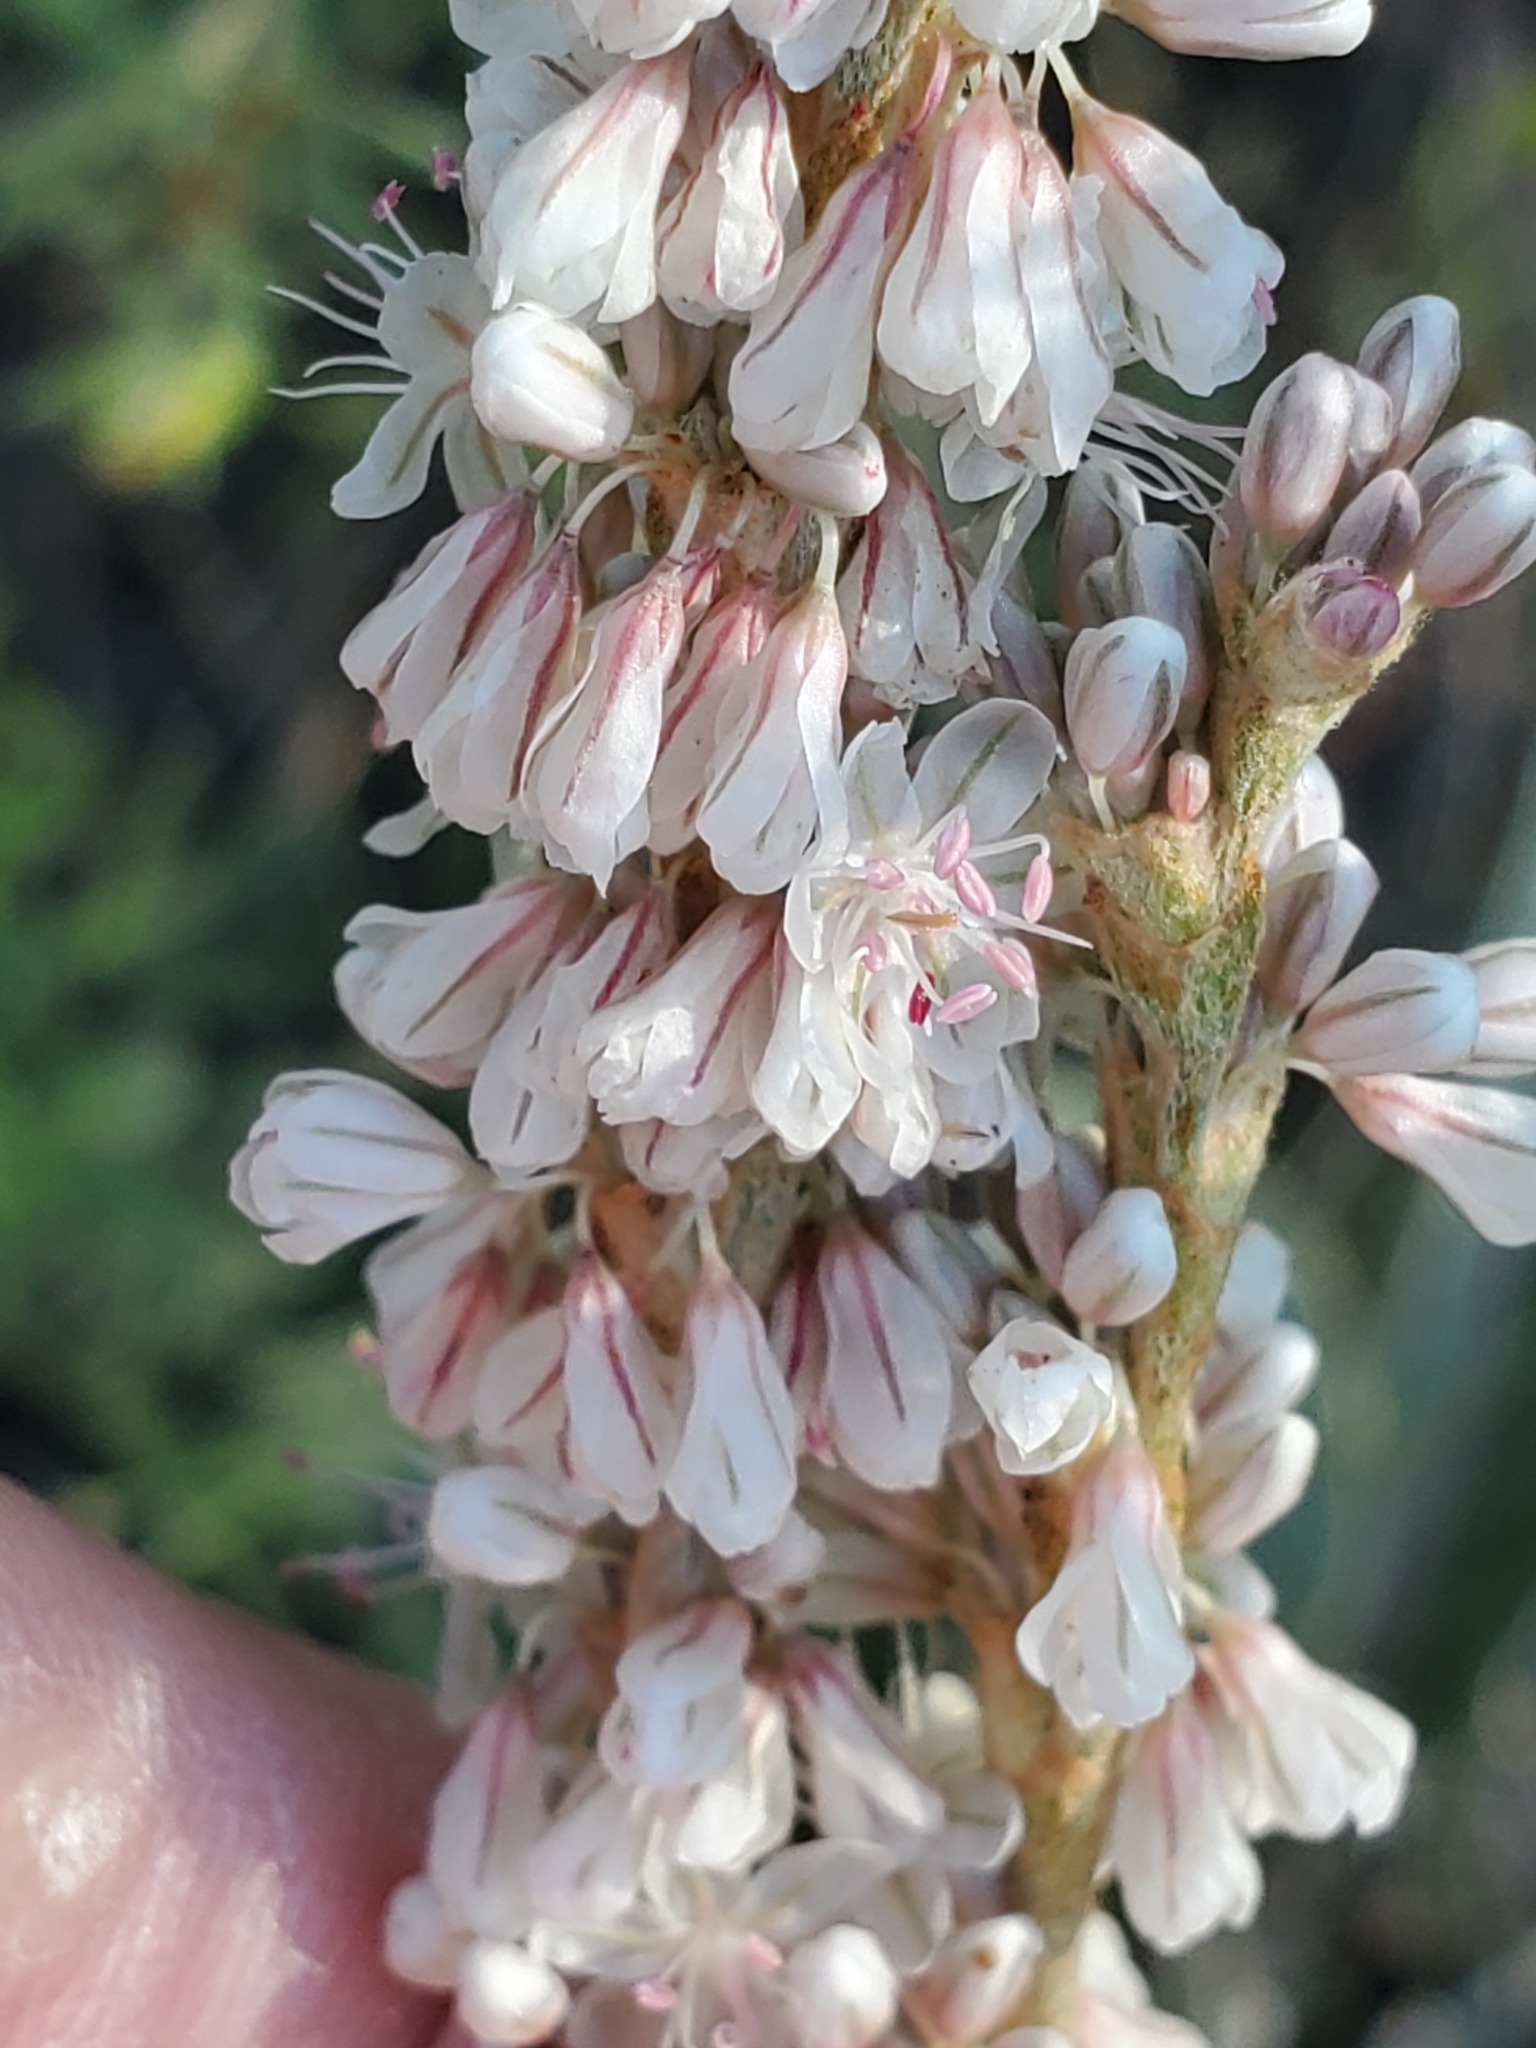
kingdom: Plantae
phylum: Tracheophyta
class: Magnoliopsida
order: Caryophyllales
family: Polygonaceae
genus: Eriogonum
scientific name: Eriogonum racemosum
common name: Redroot wild buckwheat
